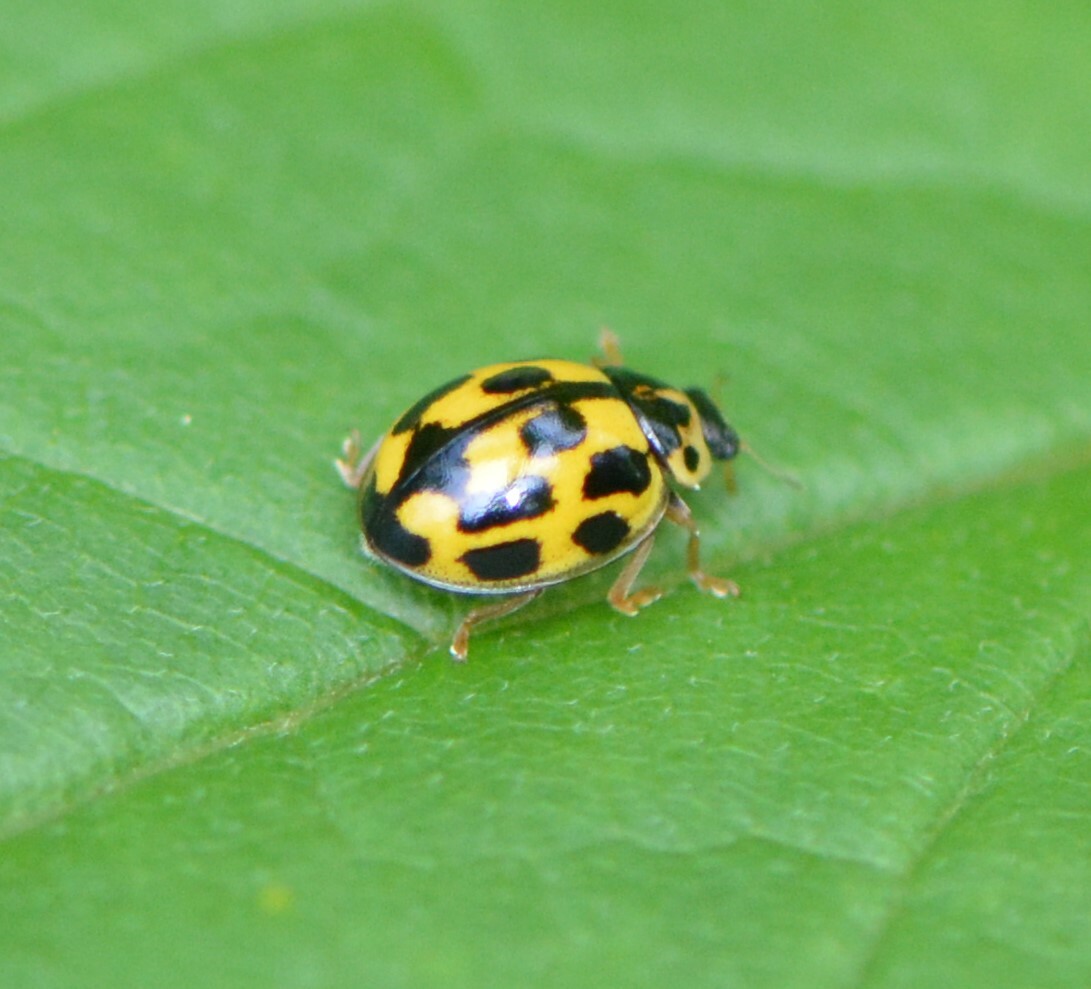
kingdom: Animalia
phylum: Arthropoda
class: Insecta
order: Coleoptera
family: Coccinellidae
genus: Propylaea
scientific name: Propylaea quatuordecimpunctata
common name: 14-spotted ladybird beetle
